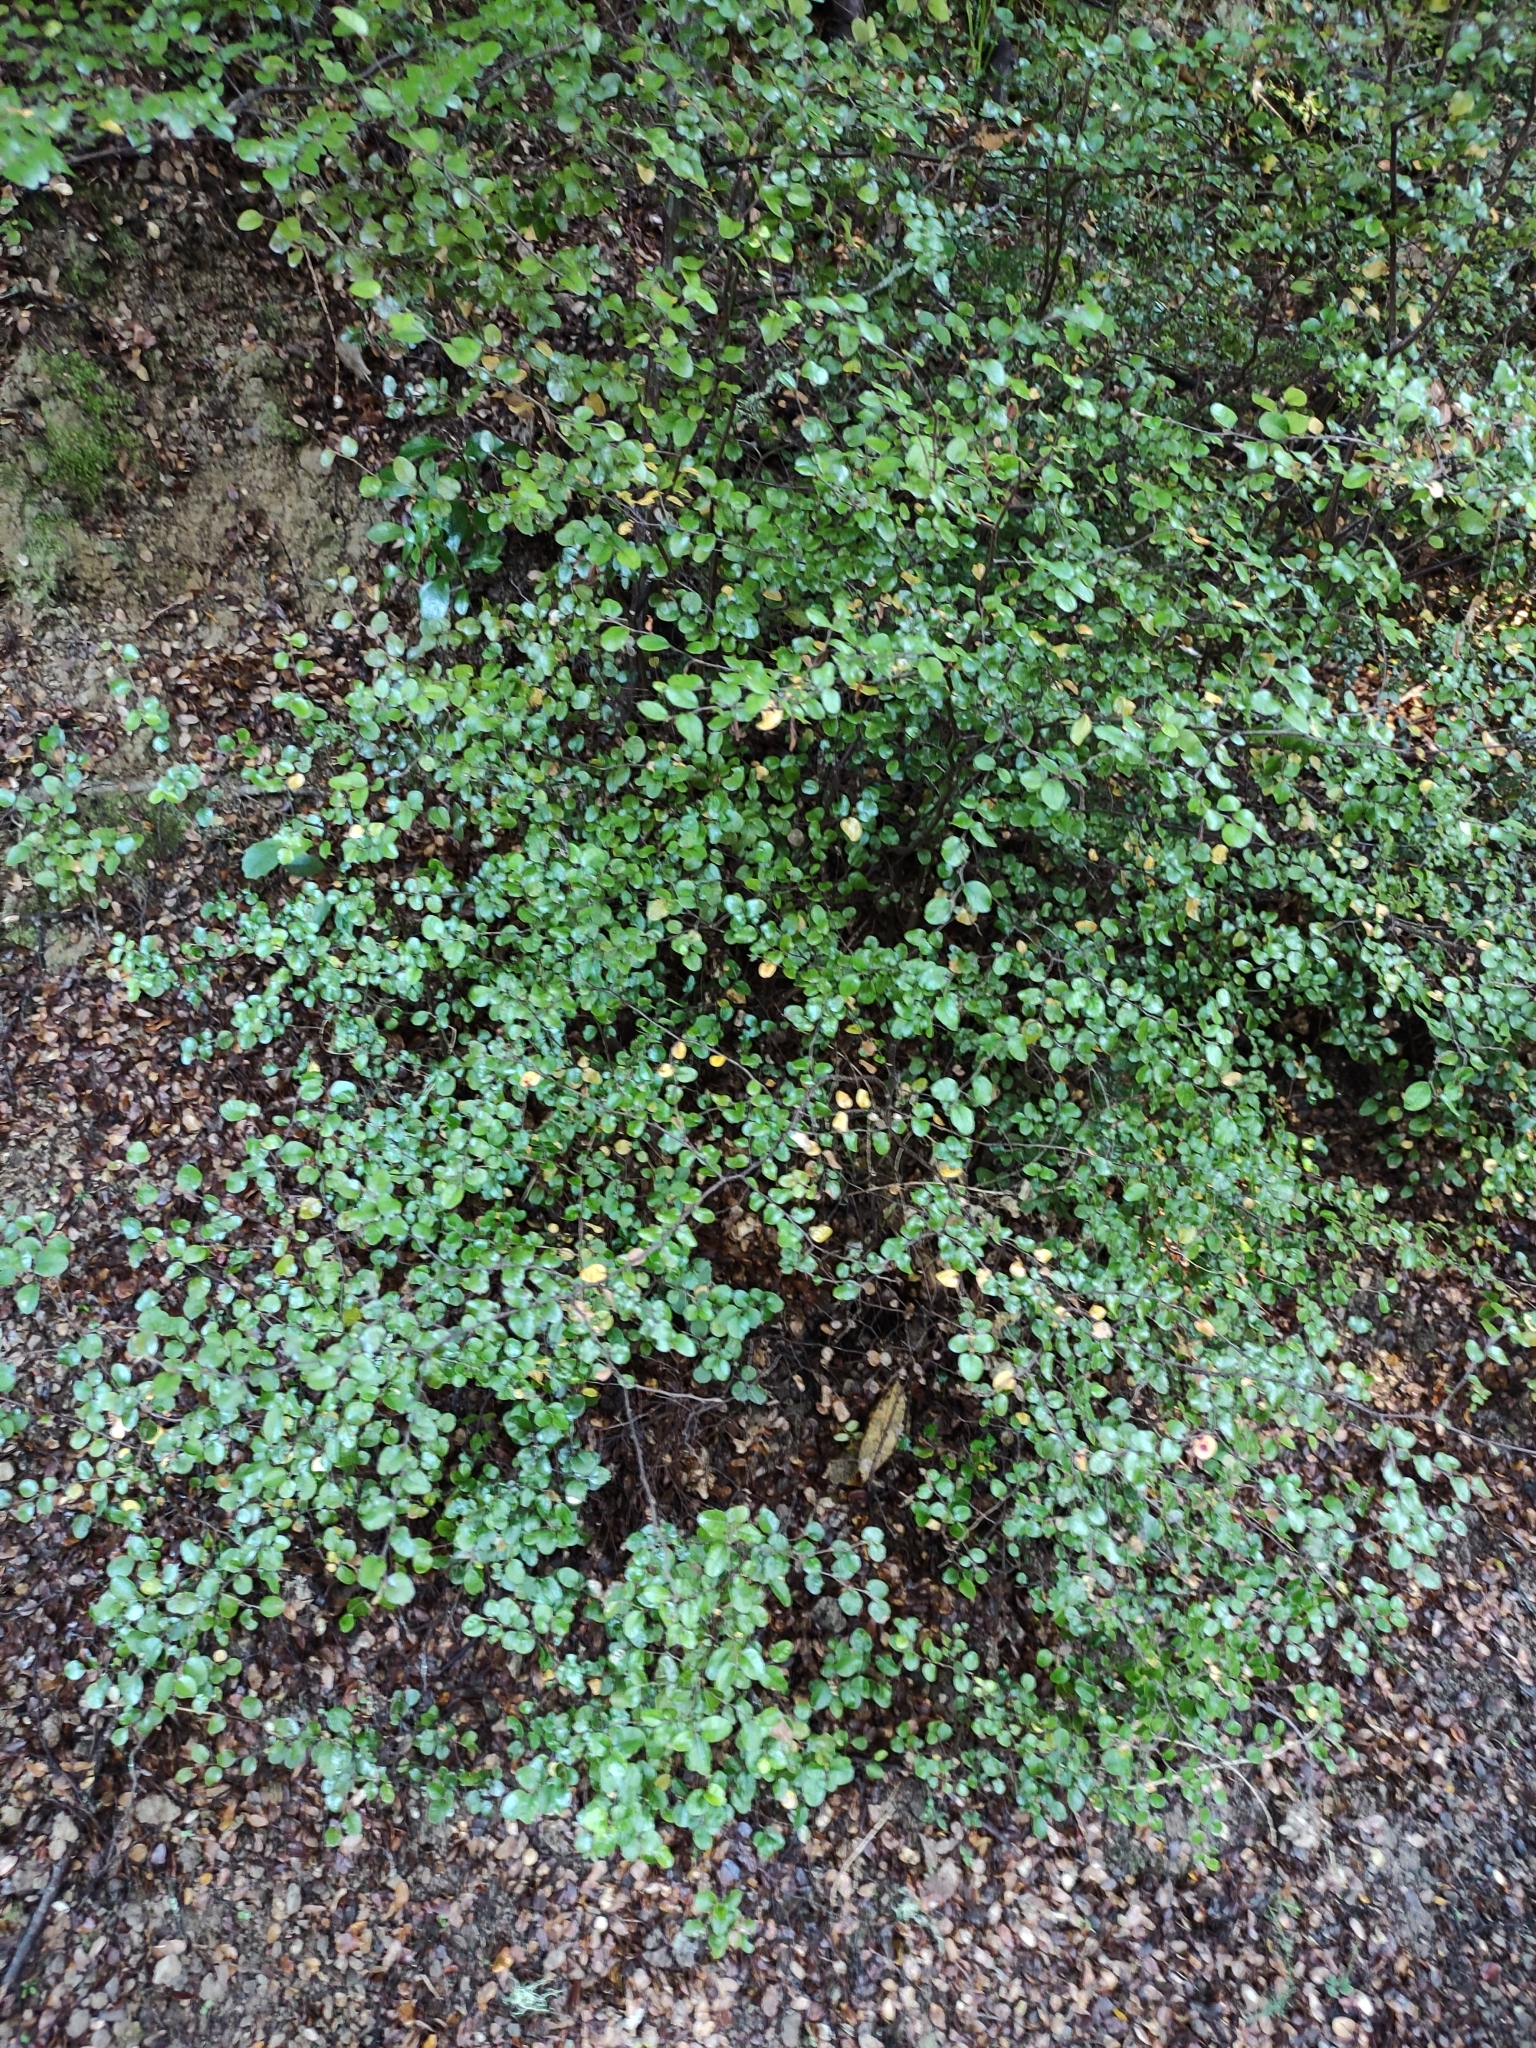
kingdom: Plantae
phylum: Tracheophyta
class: Magnoliopsida
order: Fagales
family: Nothofagaceae
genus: Nothofagus
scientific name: Nothofagus cliffortioides
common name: Mountain beech
